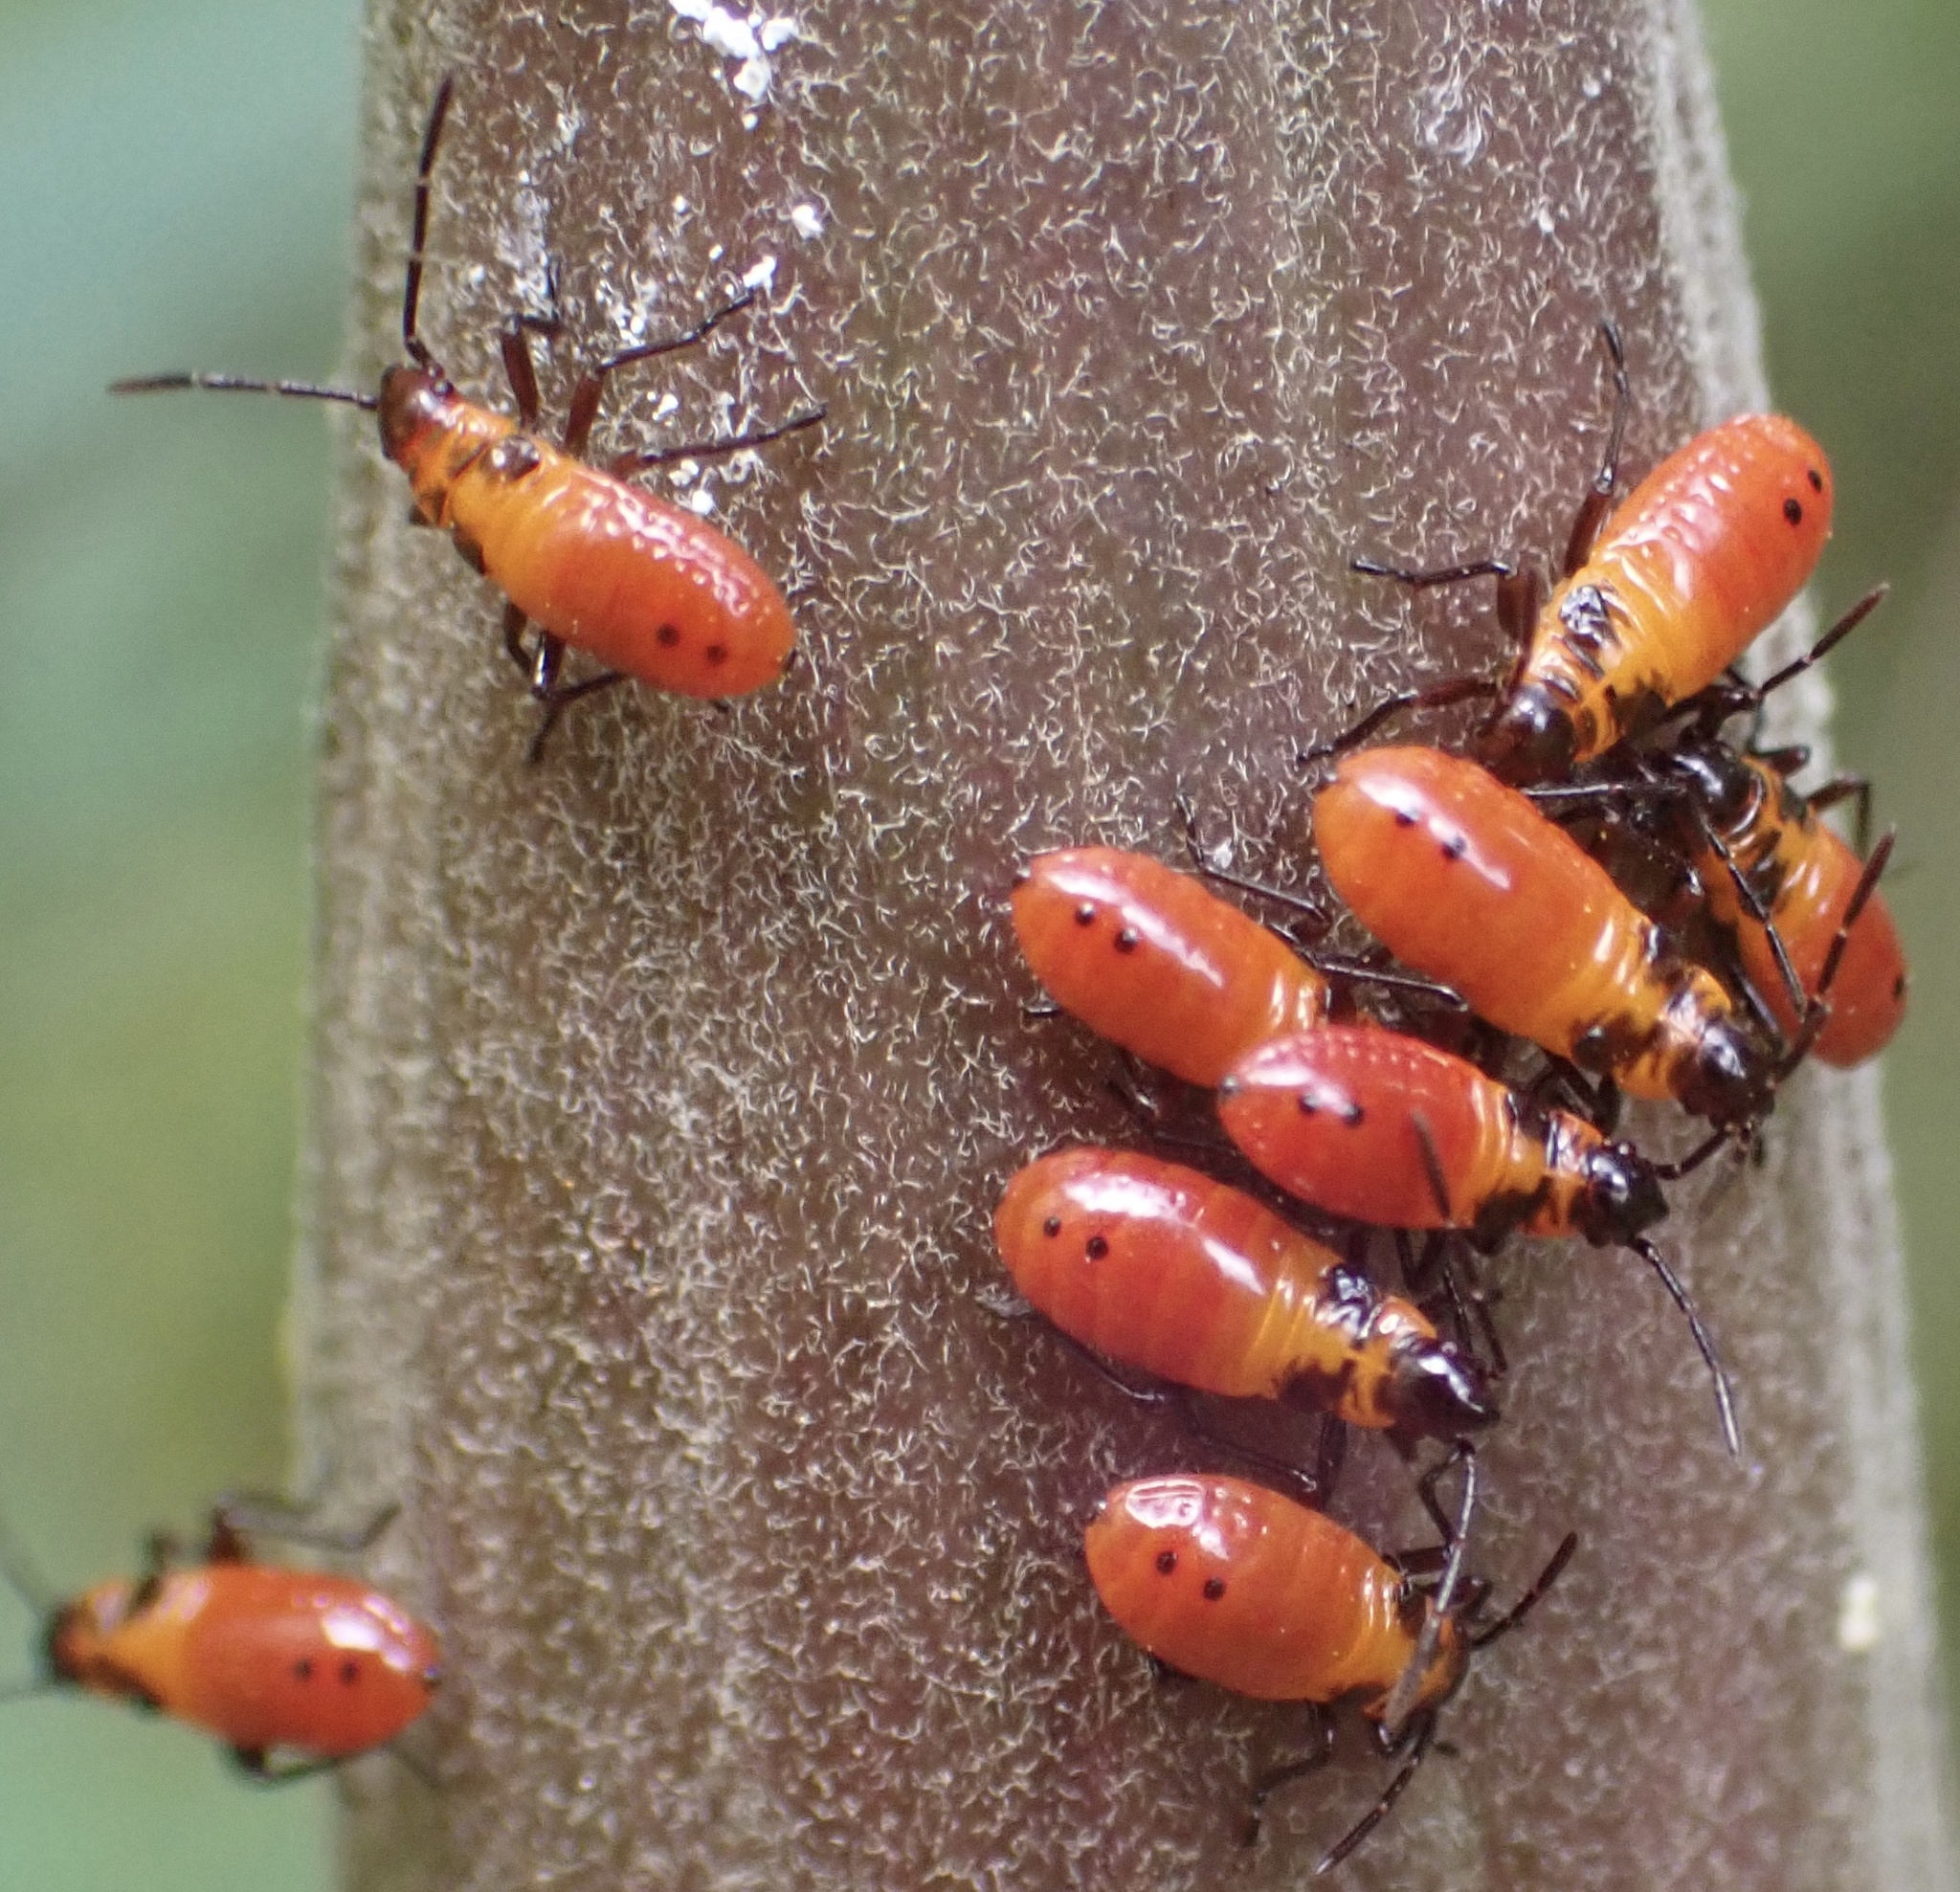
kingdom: Animalia
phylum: Arthropoda
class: Insecta
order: Hemiptera
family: Lygaeidae
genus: Oncopeltus
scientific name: Oncopeltus fasciatus
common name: Large milkweed bug
